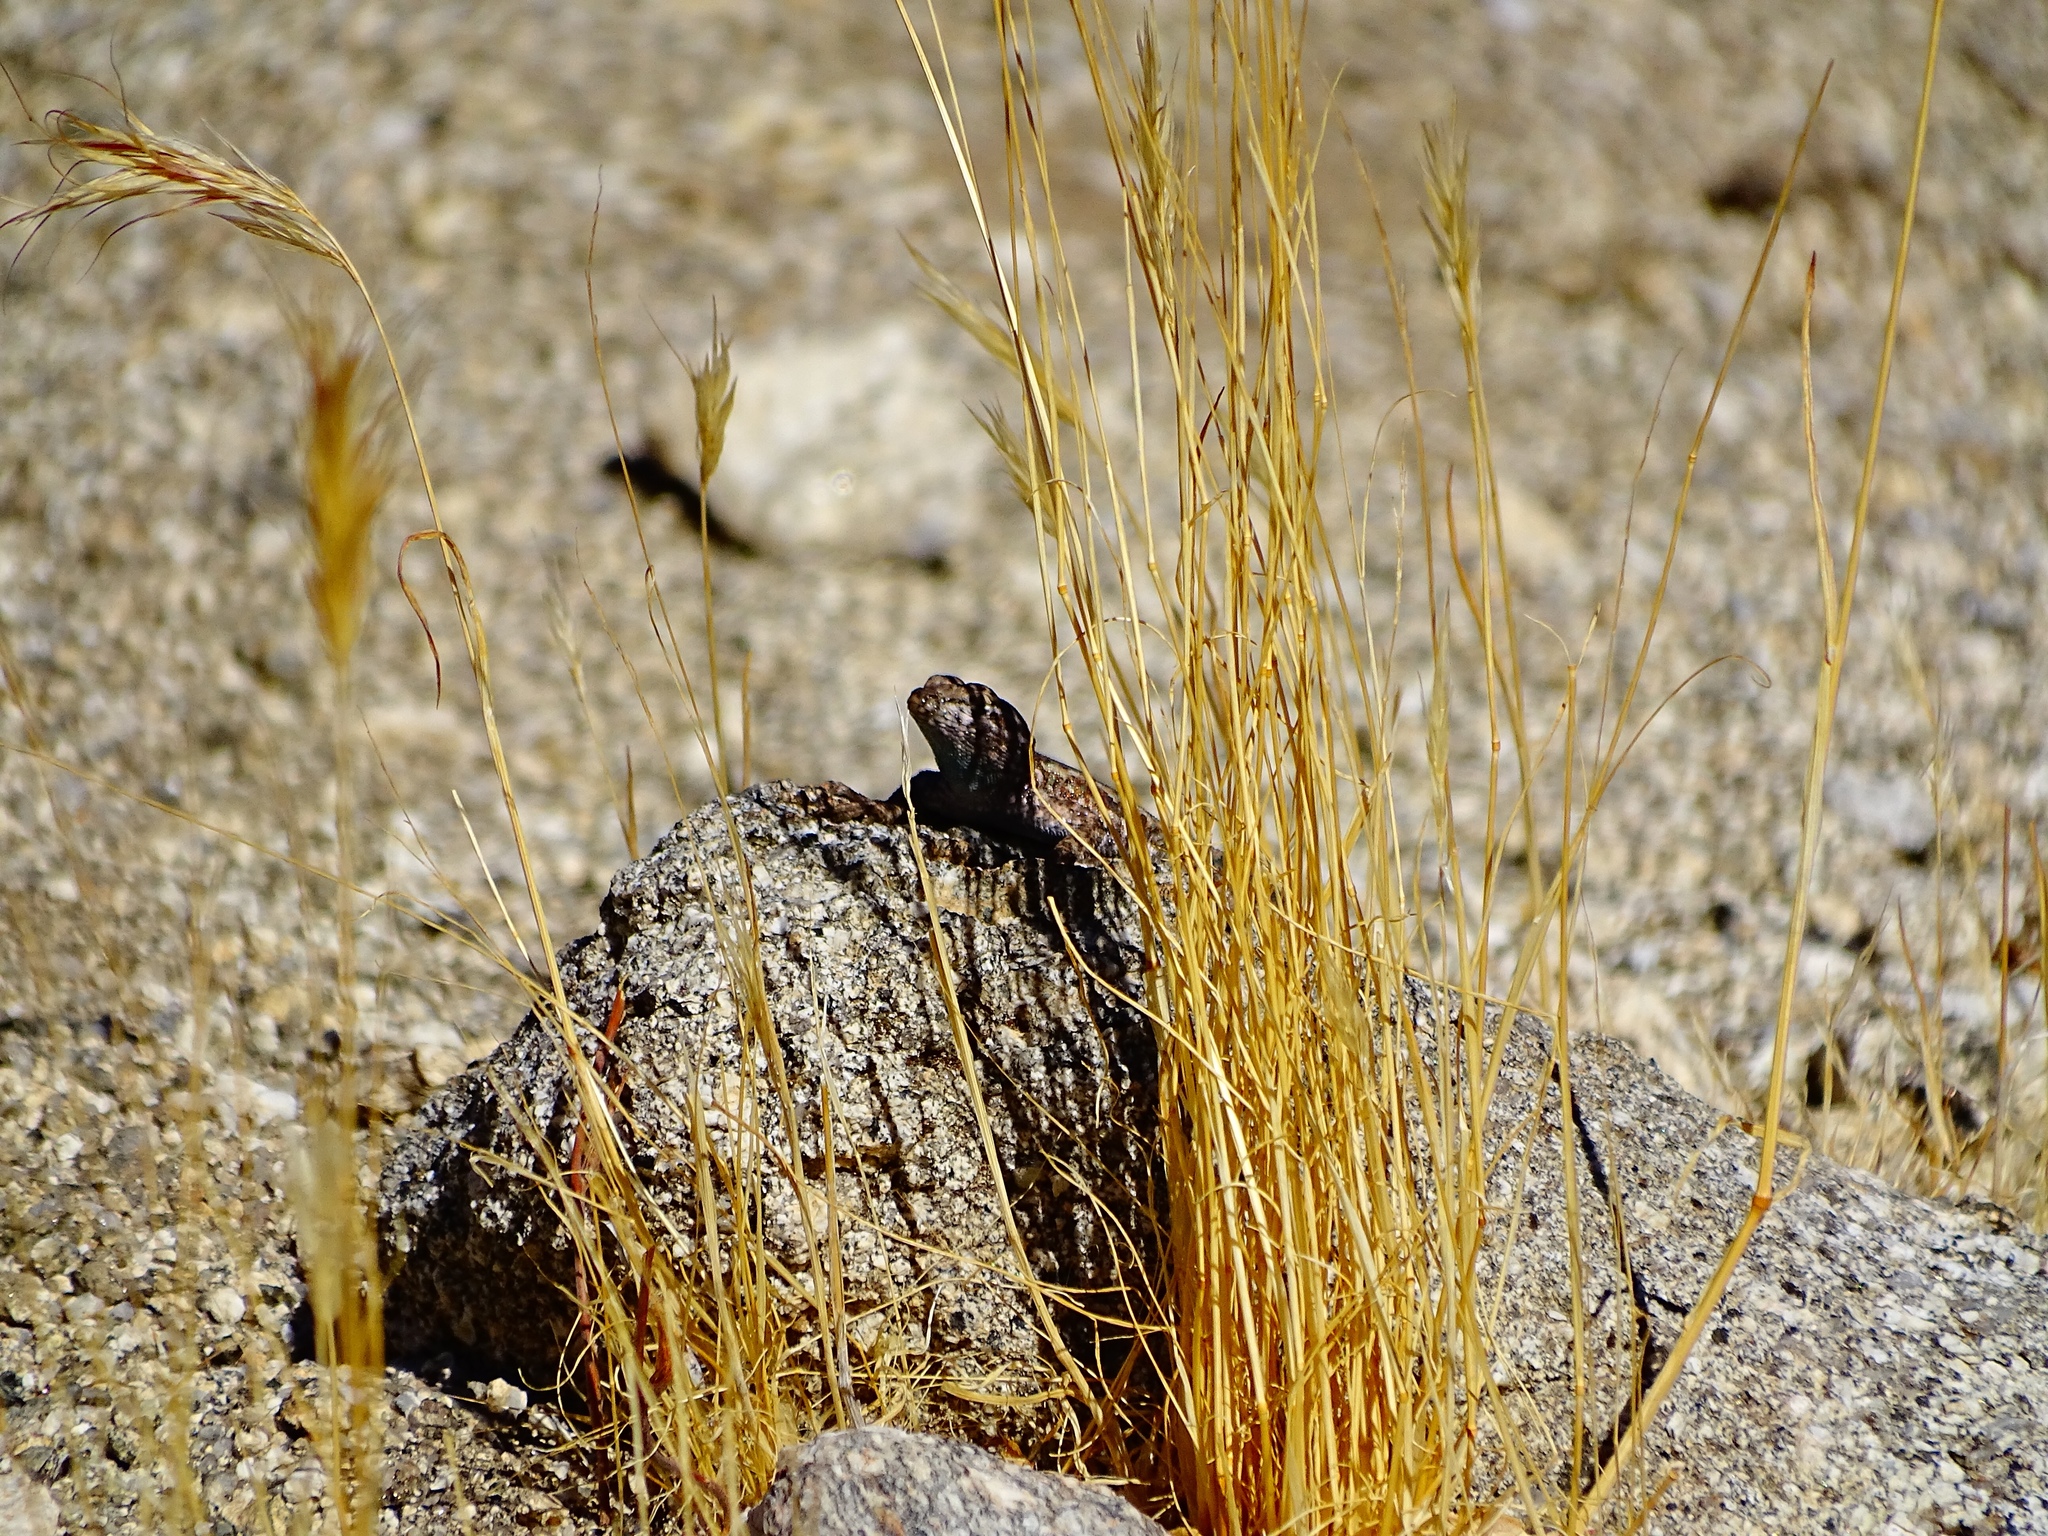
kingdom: Animalia
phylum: Chordata
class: Squamata
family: Phrynosomatidae
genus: Uta
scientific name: Uta stansburiana
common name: Side-blotched lizard
